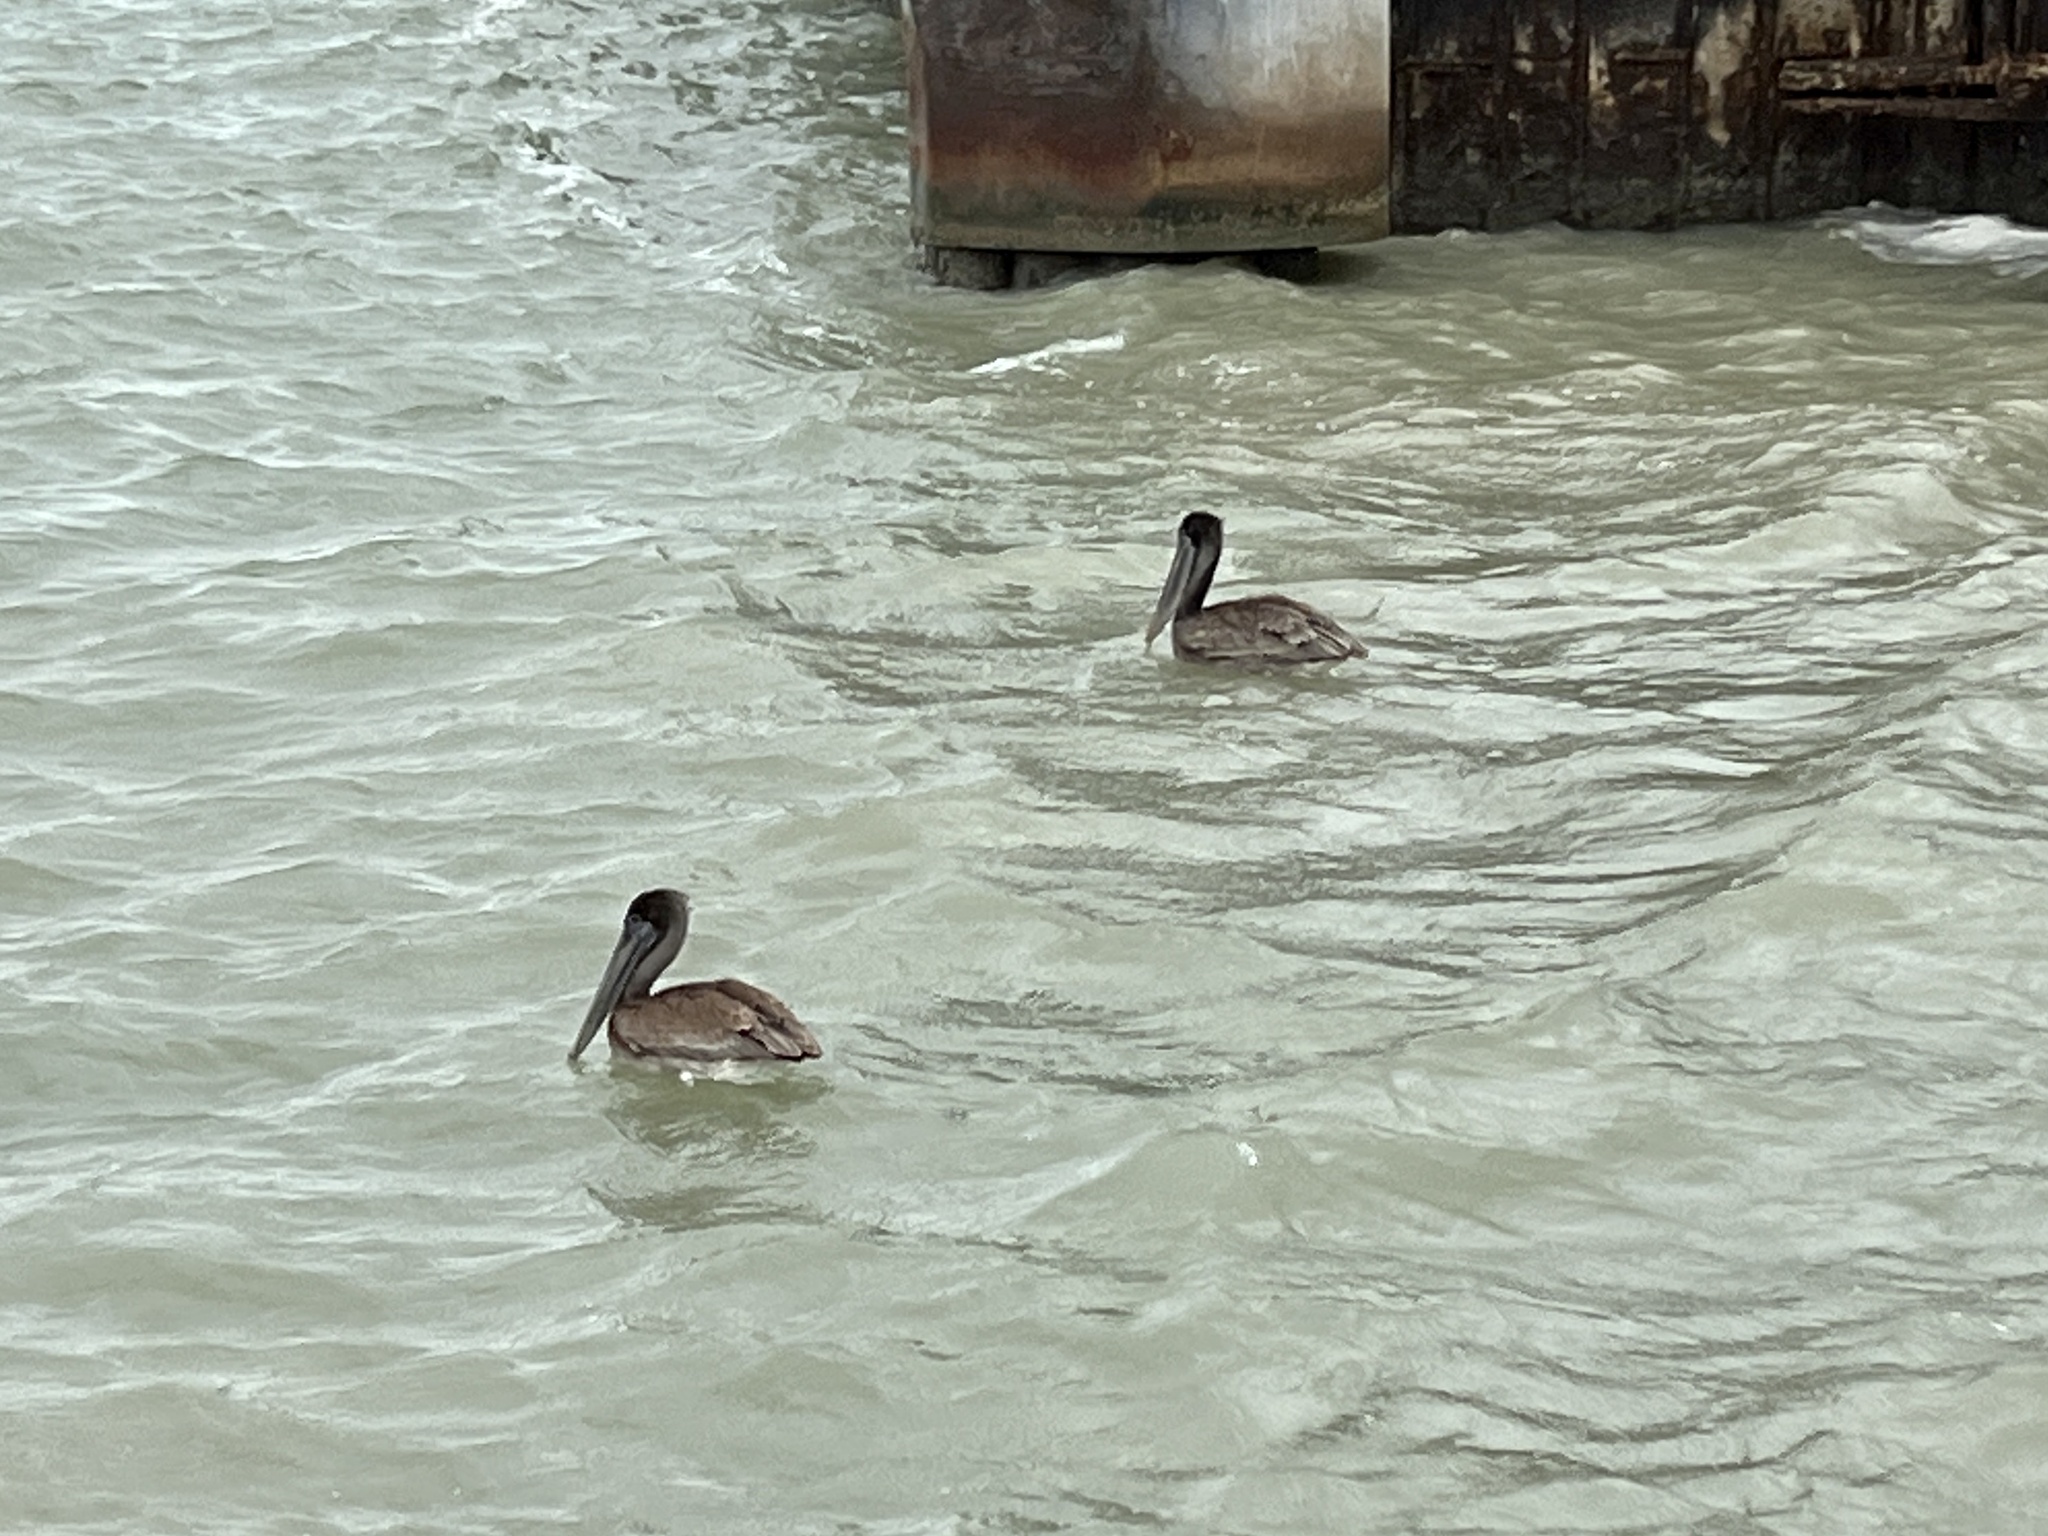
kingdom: Animalia
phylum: Chordata
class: Aves
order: Pelecaniformes
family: Pelecanidae
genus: Pelecanus
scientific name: Pelecanus occidentalis
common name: Brown pelican
